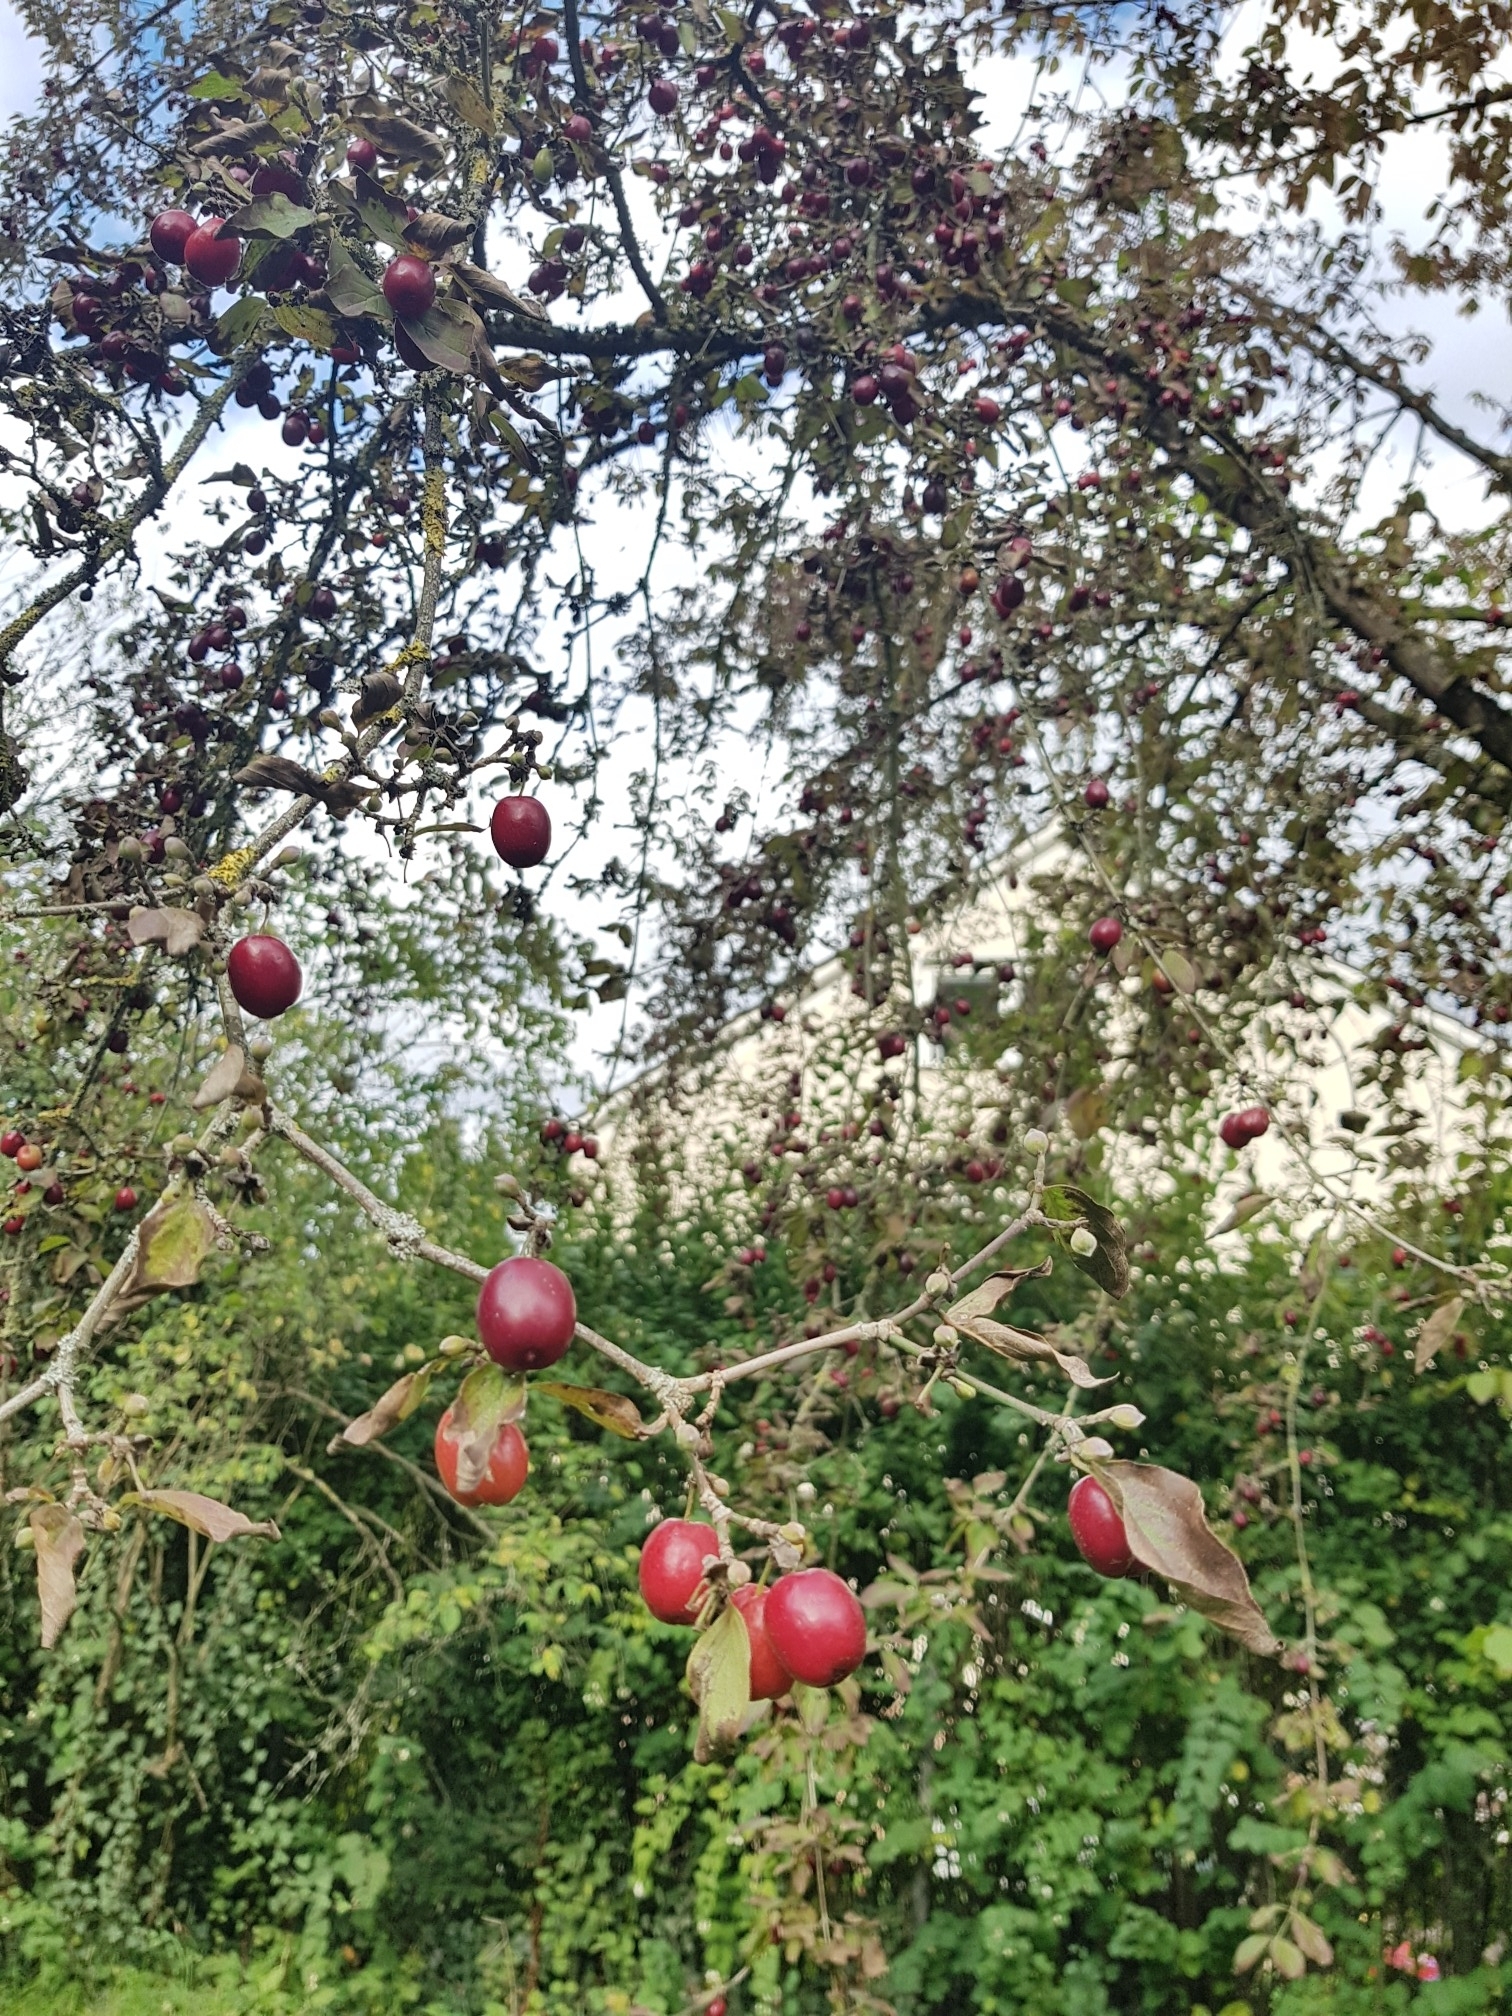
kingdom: Plantae
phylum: Tracheophyta
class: Magnoliopsida
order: Cornales
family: Cornaceae
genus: Cornus
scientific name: Cornus mas
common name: Cornelian-cherry
